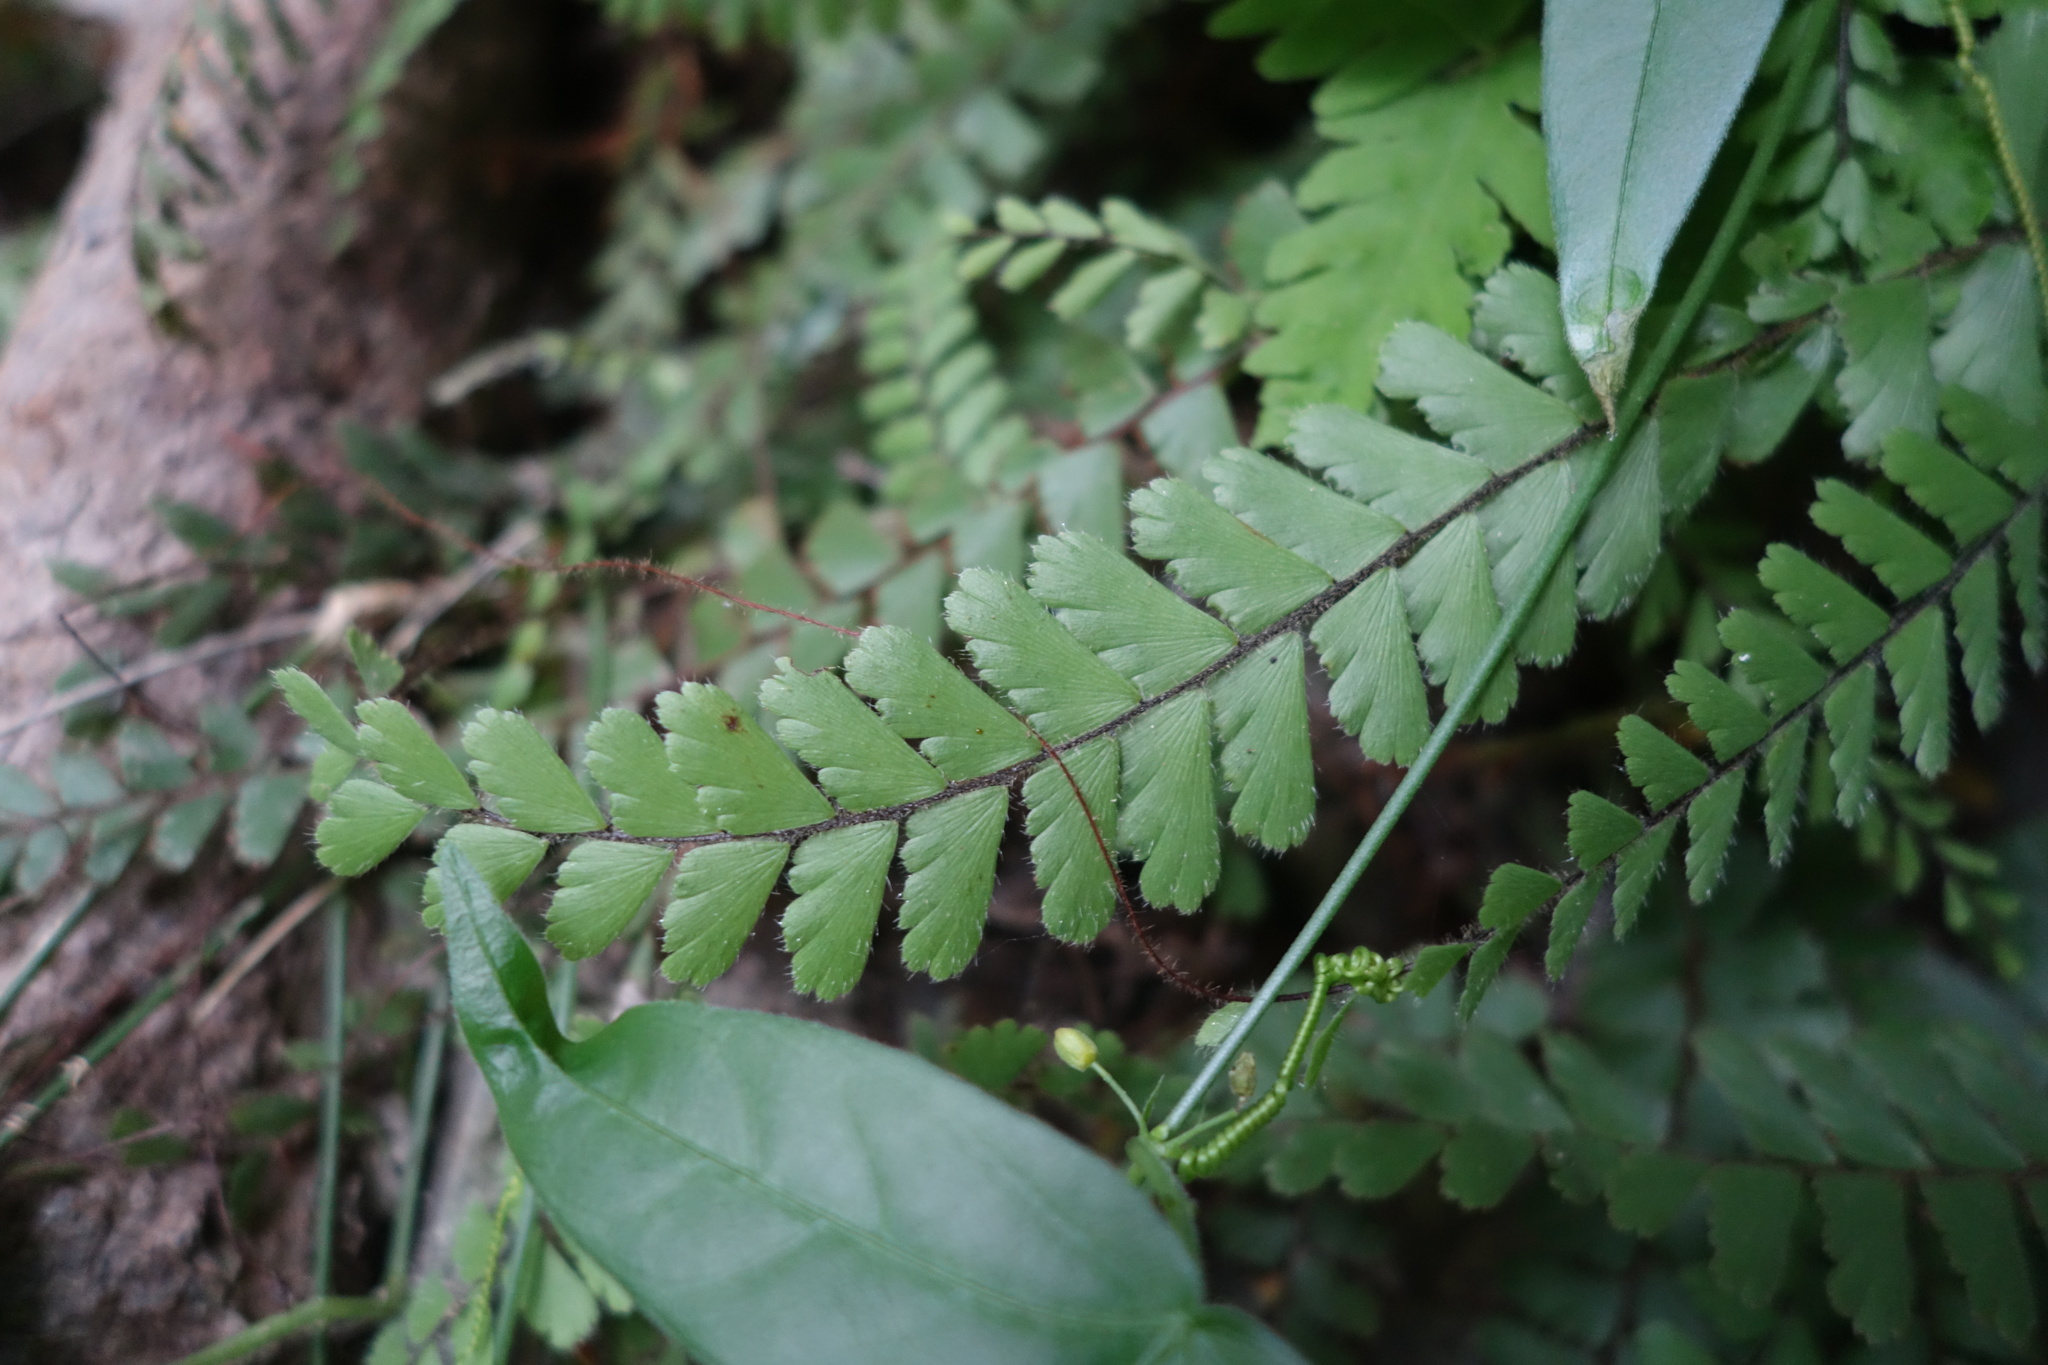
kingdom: Plantae
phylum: Tracheophyta
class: Polypodiopsida
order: Polypodiales
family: Pteridaceae
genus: Adiantum
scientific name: Adiantum caudatum
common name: Tailed maidenhair
